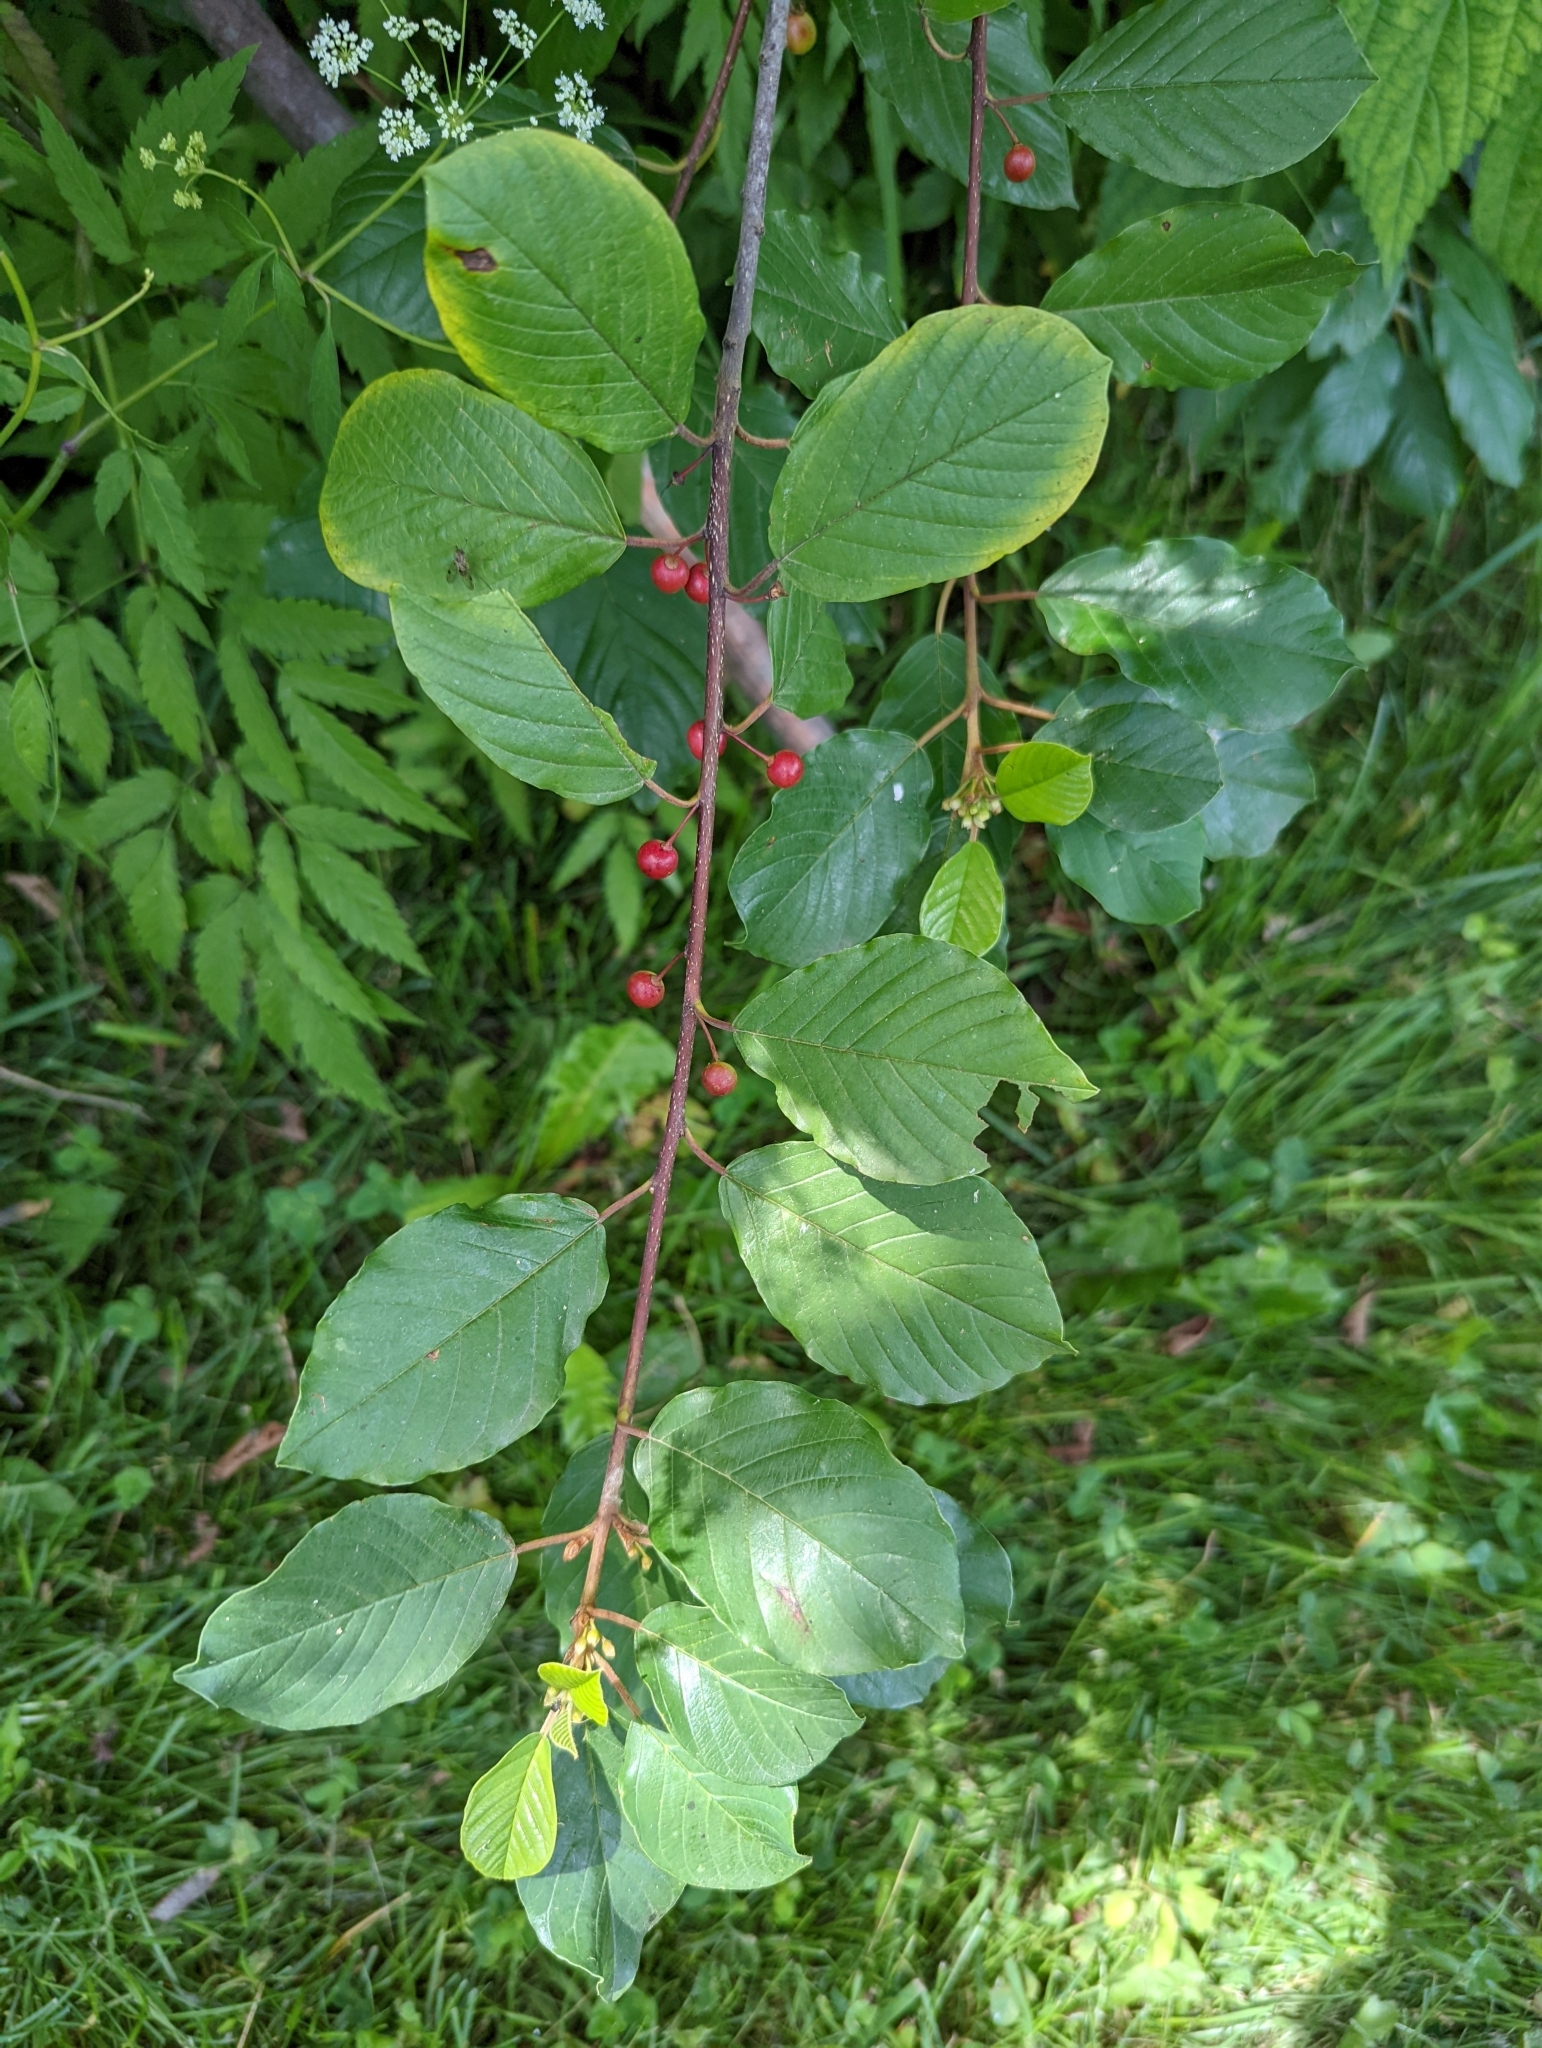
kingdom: Plantae
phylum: Tracheophyta
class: Magnoliopsida
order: Rosales
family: Rhamnaceae
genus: Frangula
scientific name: Frangula alnus
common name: Alder buckthorn
